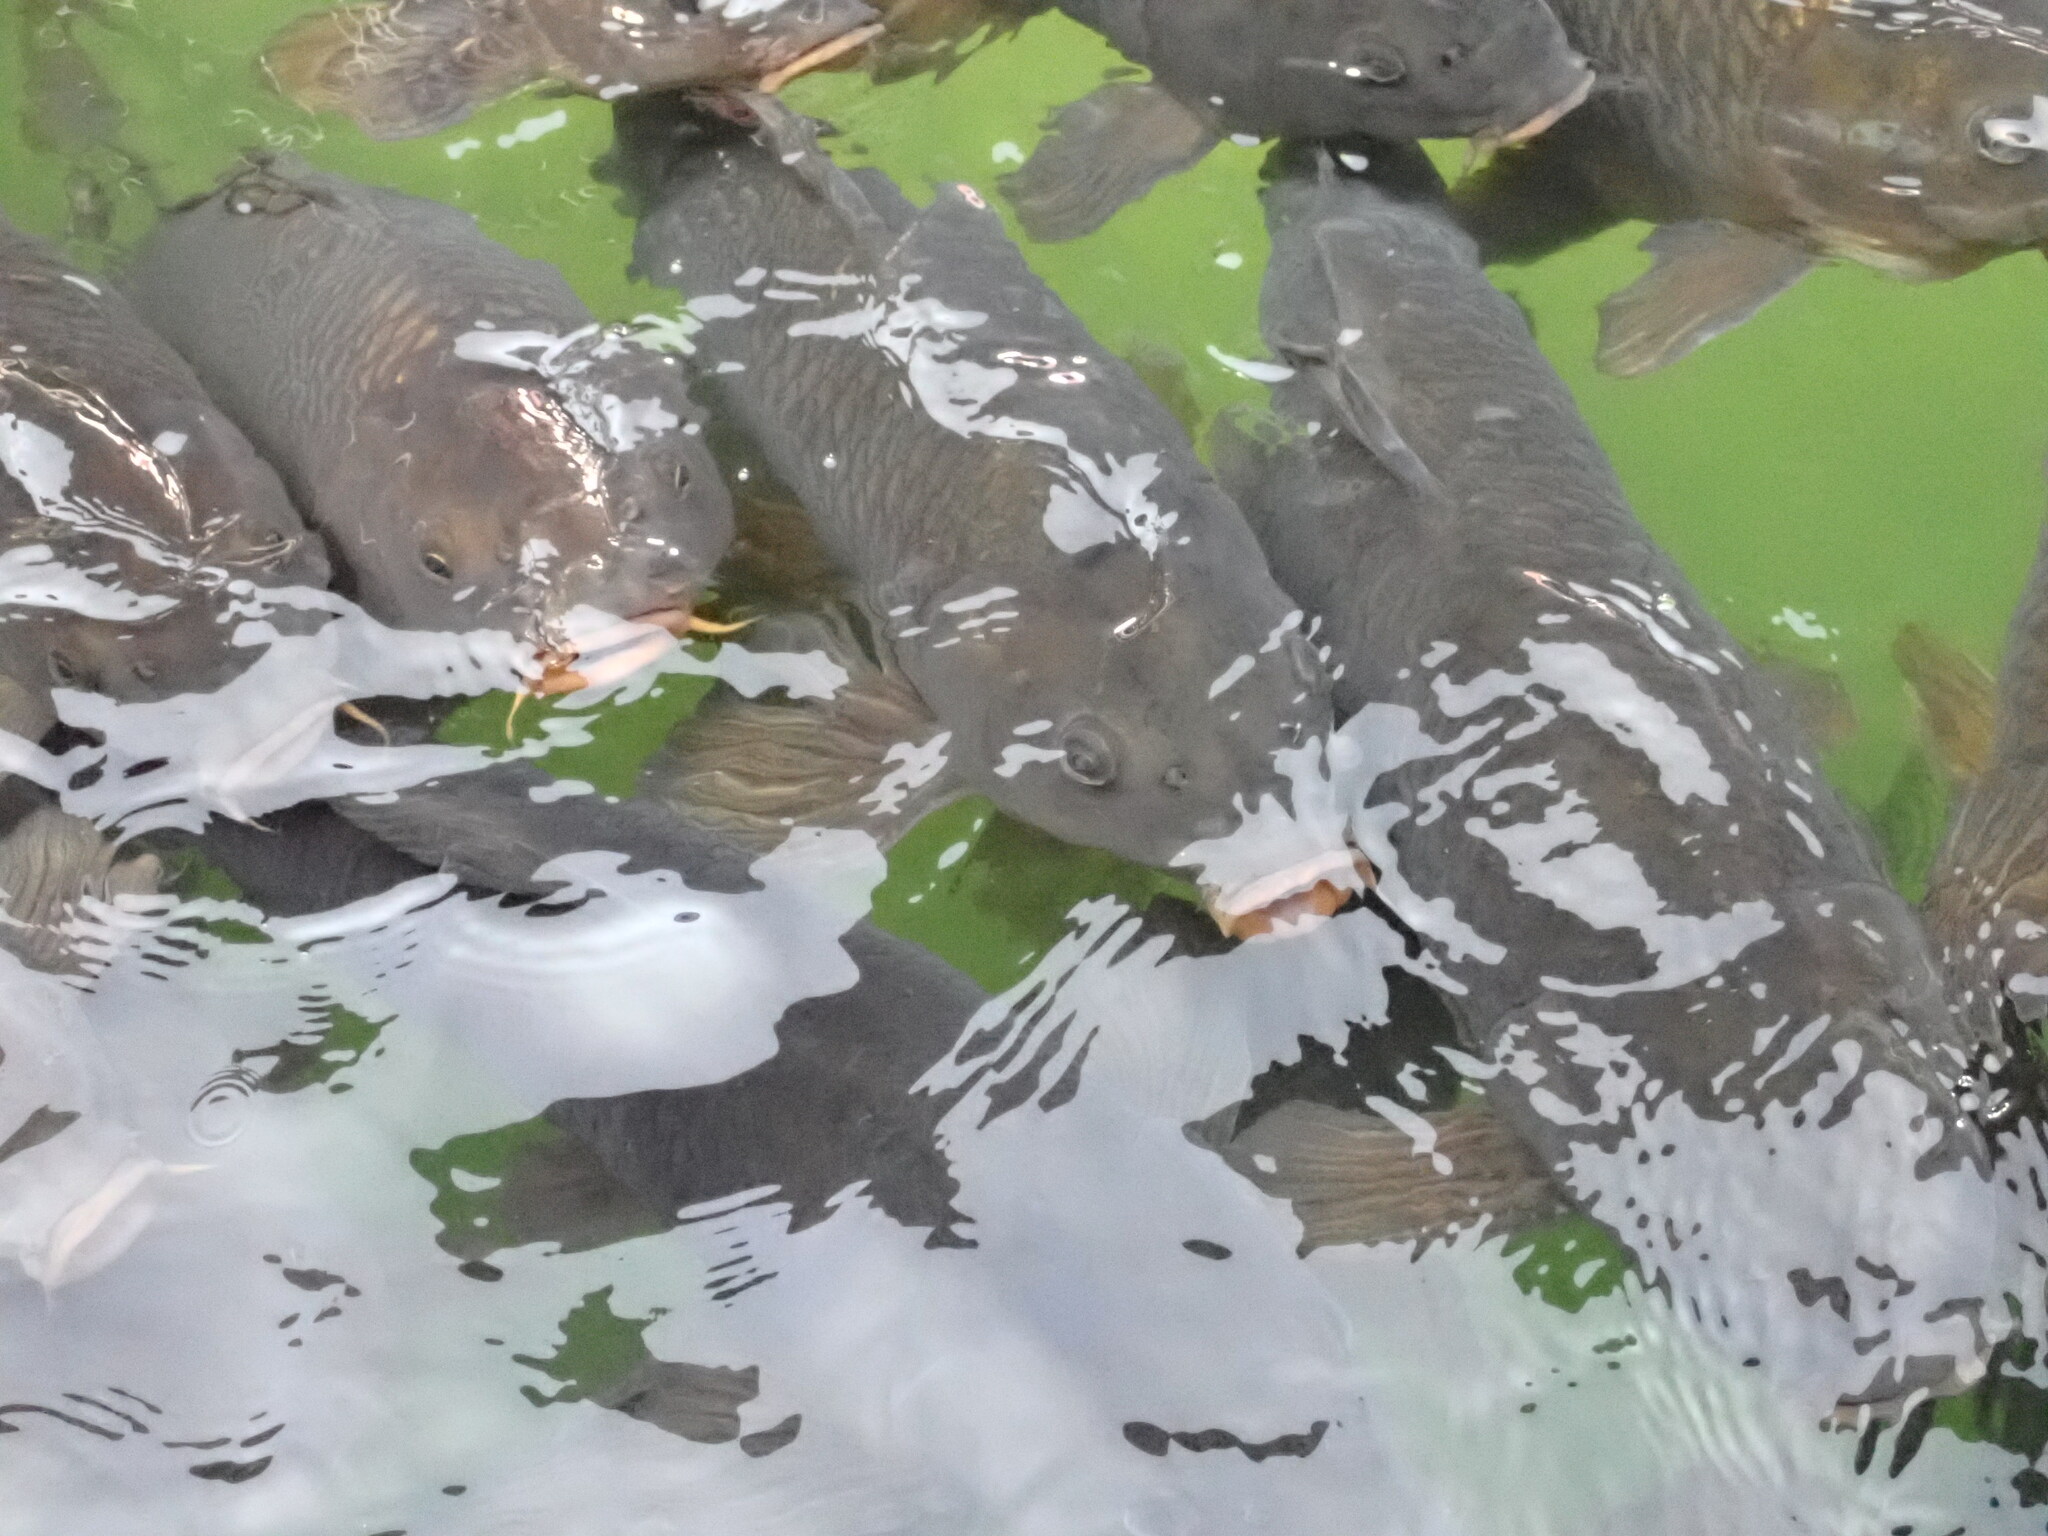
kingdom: Animalia
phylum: Chordata
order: Cypriniformes
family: Cyprinidae
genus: Cyprinus
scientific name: Cyprinus carpio
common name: Common carp
